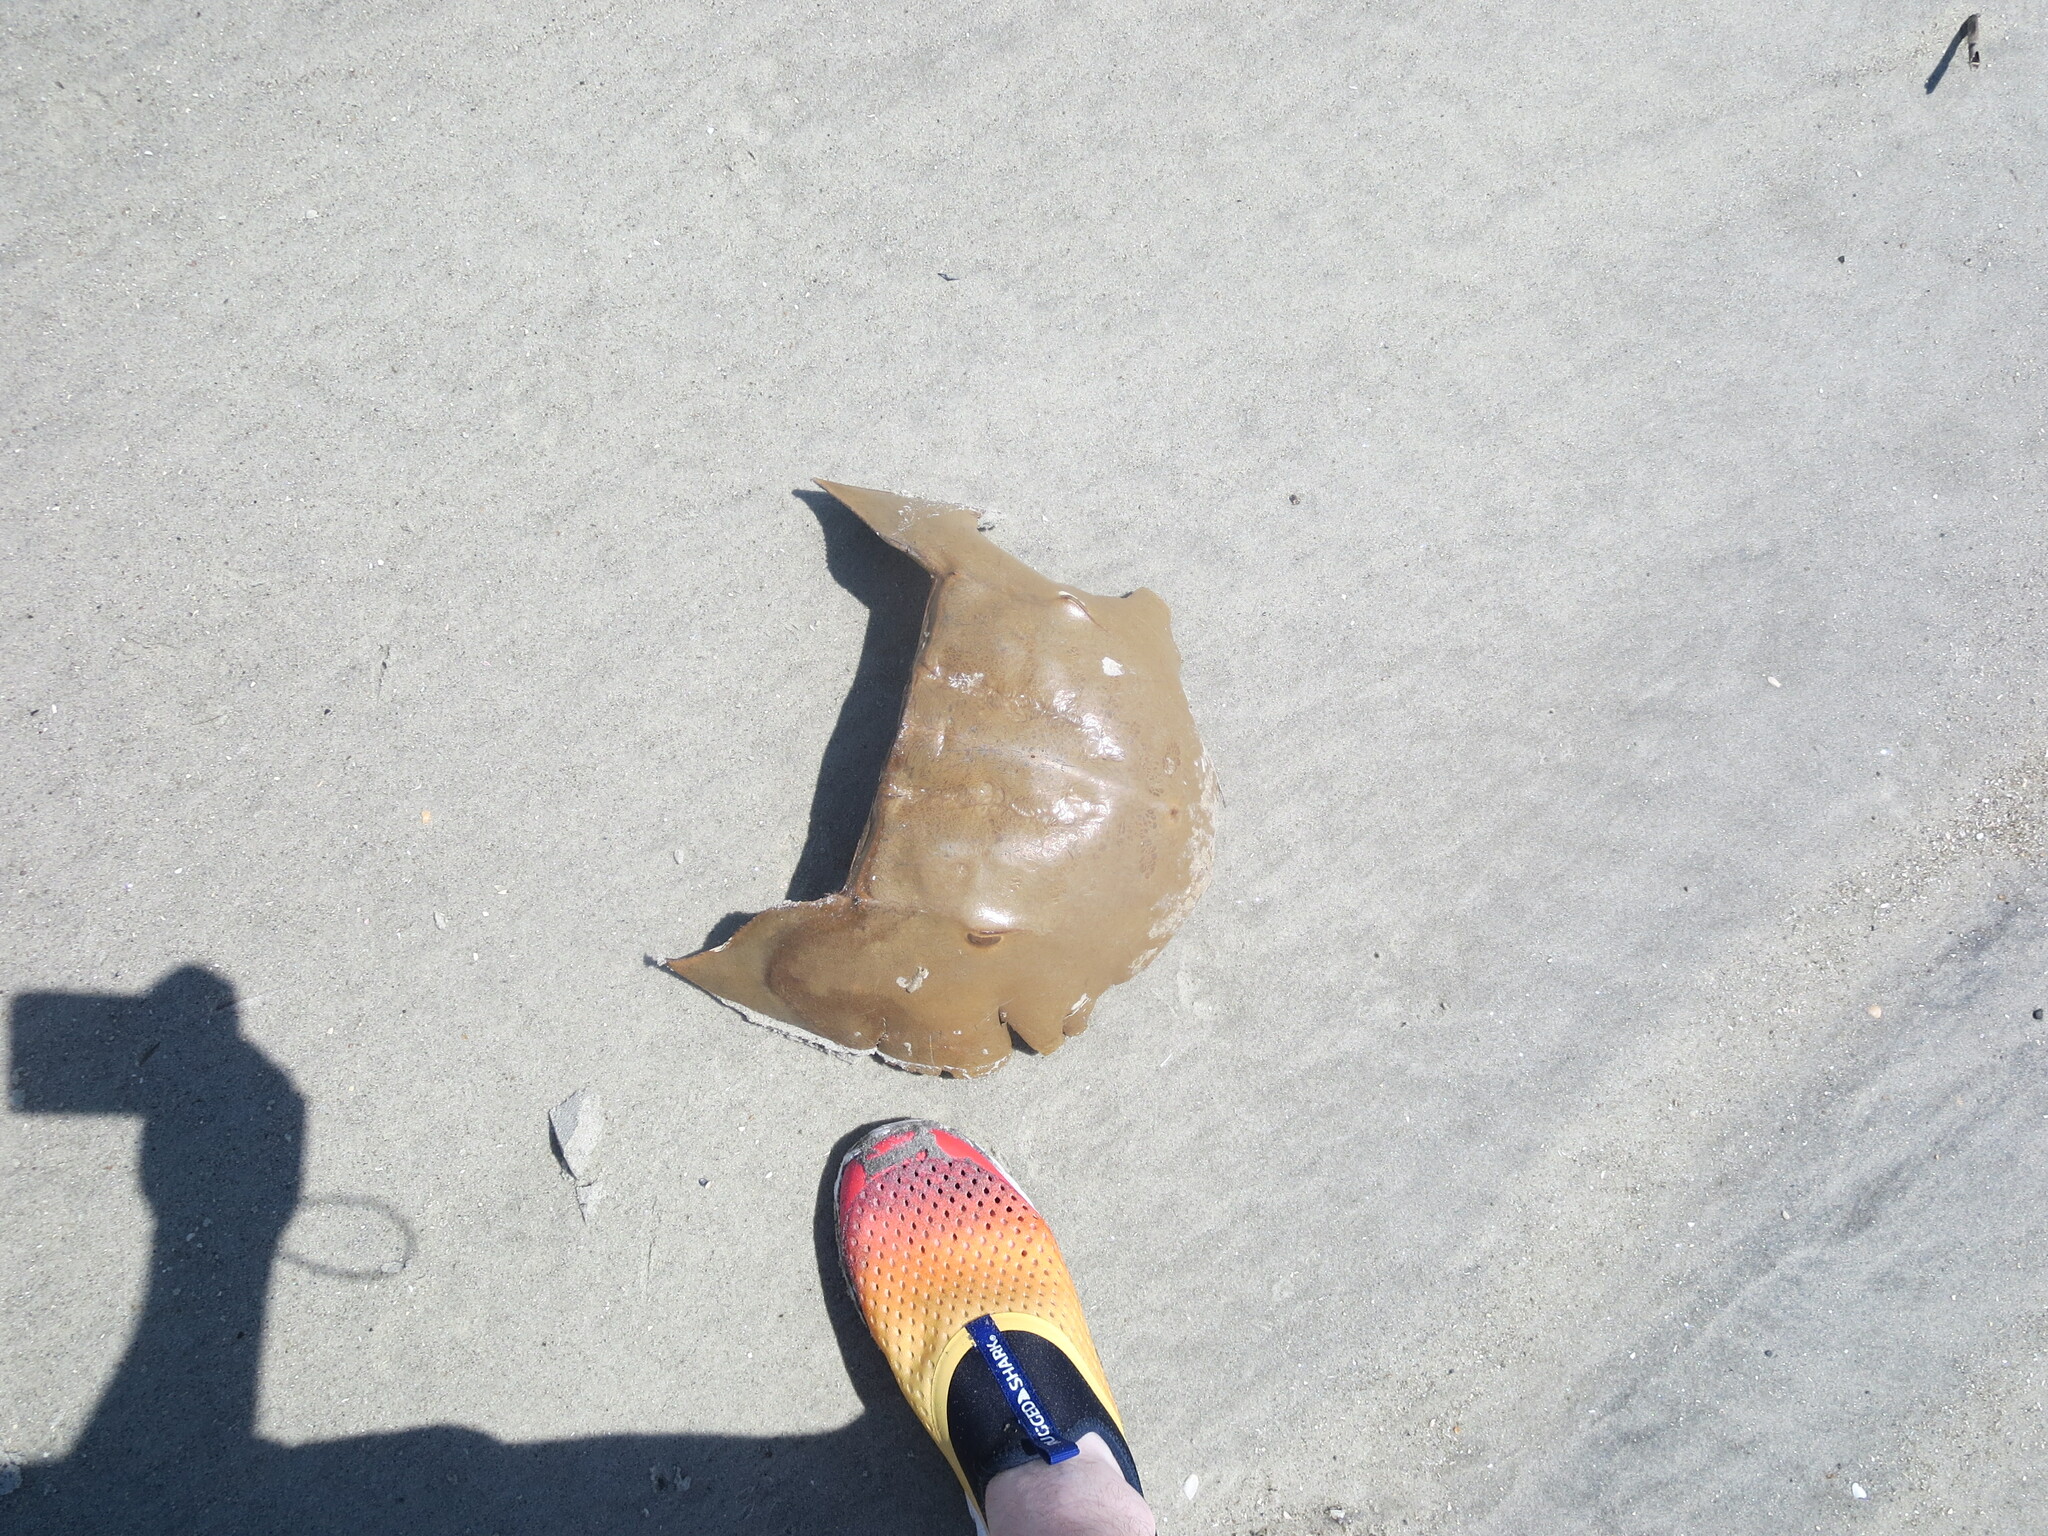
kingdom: Animalia
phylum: Arthropoda
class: Merostomata
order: Xiphosurida
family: Limulidae
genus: Limulus
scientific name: Limulus polyphemus
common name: Horseshoe crab
